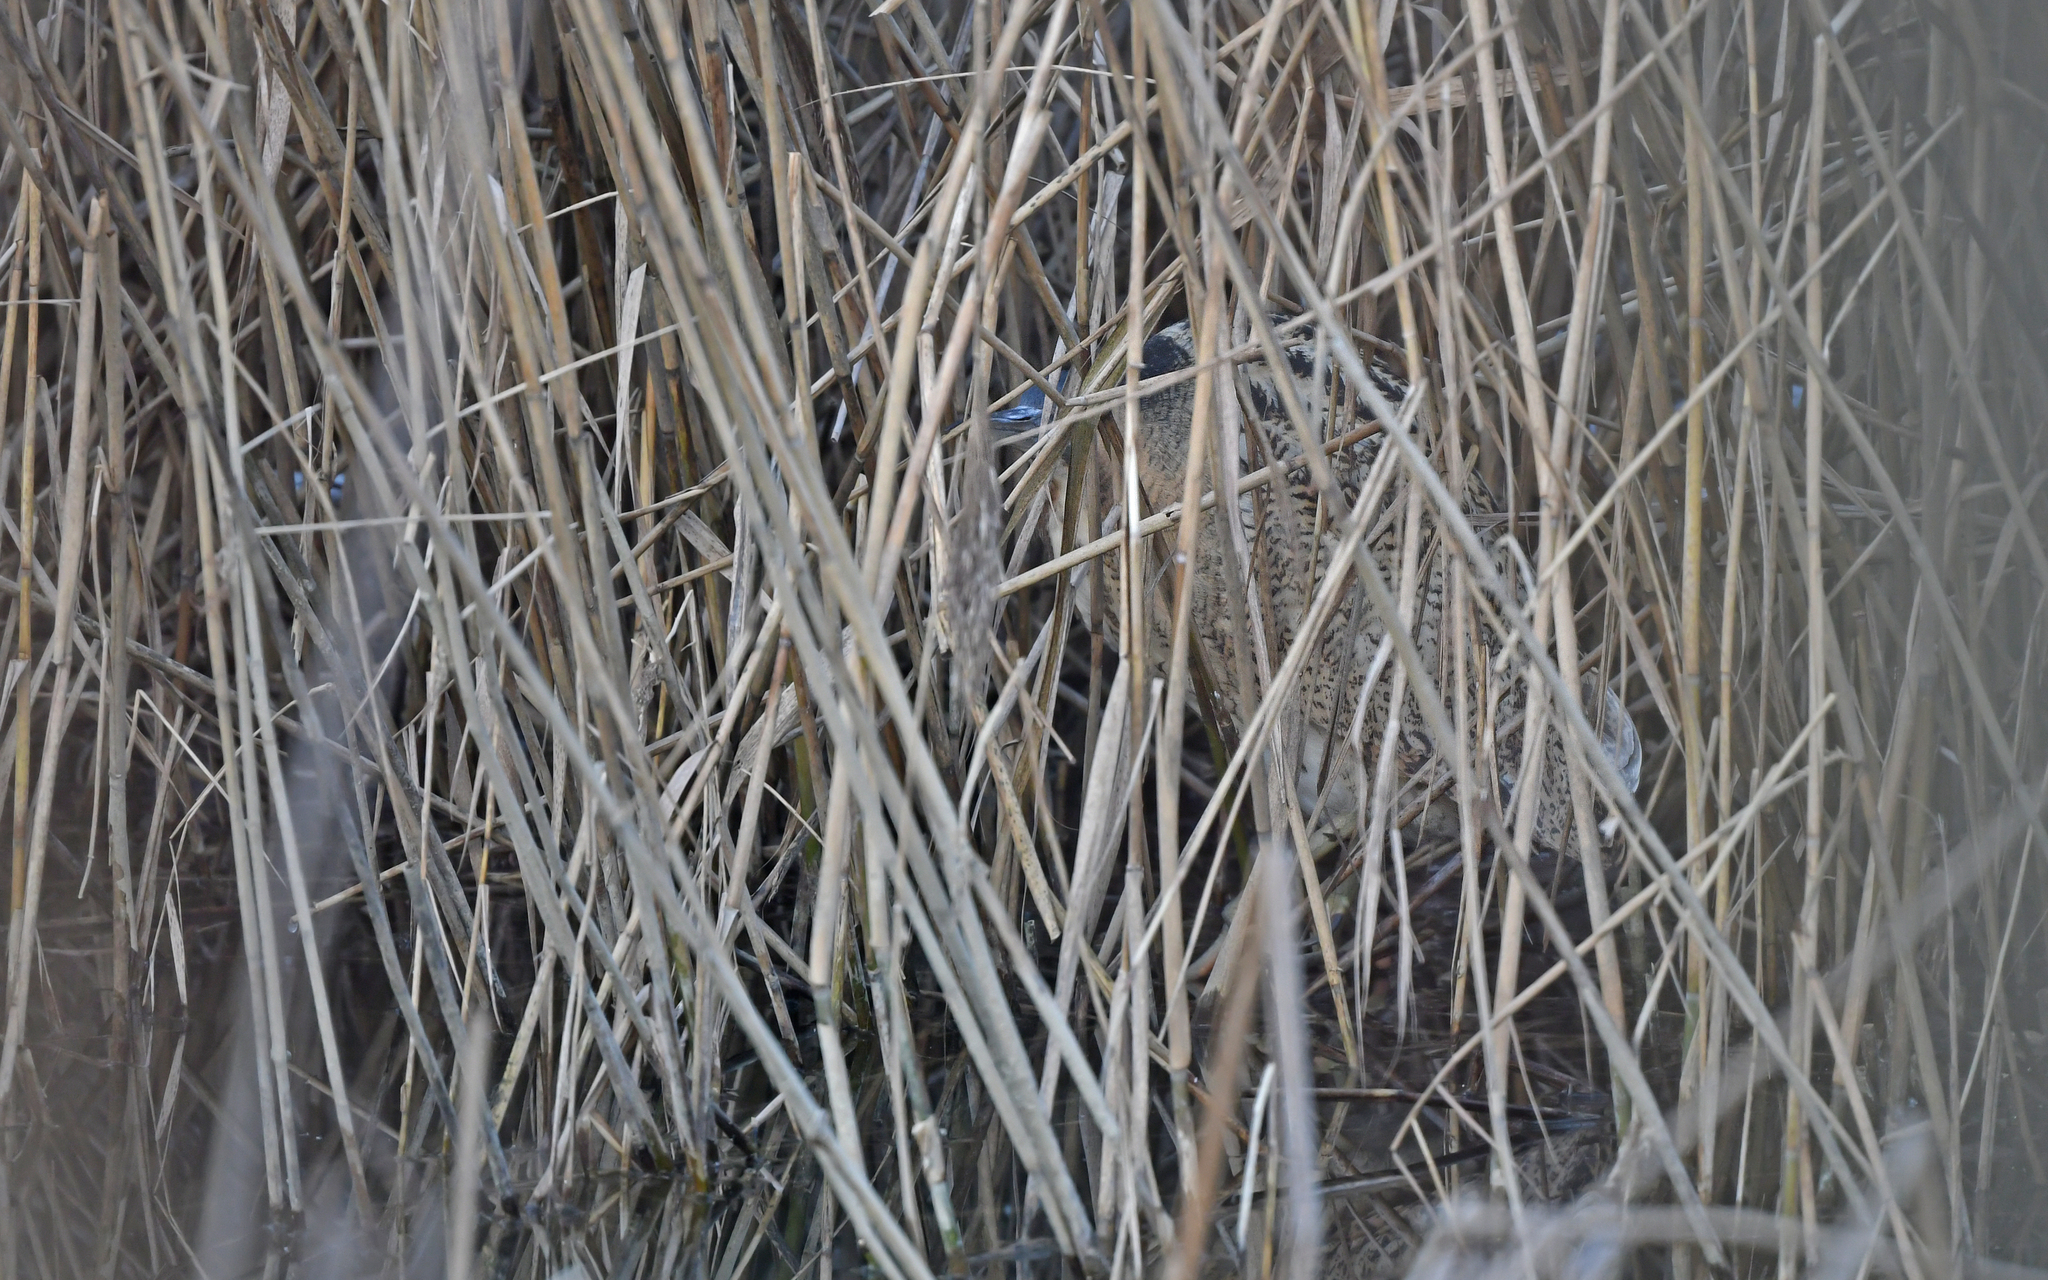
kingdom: Animalia
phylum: Chordata
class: Aves
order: Pelecaniformes
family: Ardeidae
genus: Botaurus
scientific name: Botaurus stellaris
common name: Eurasian bittern
